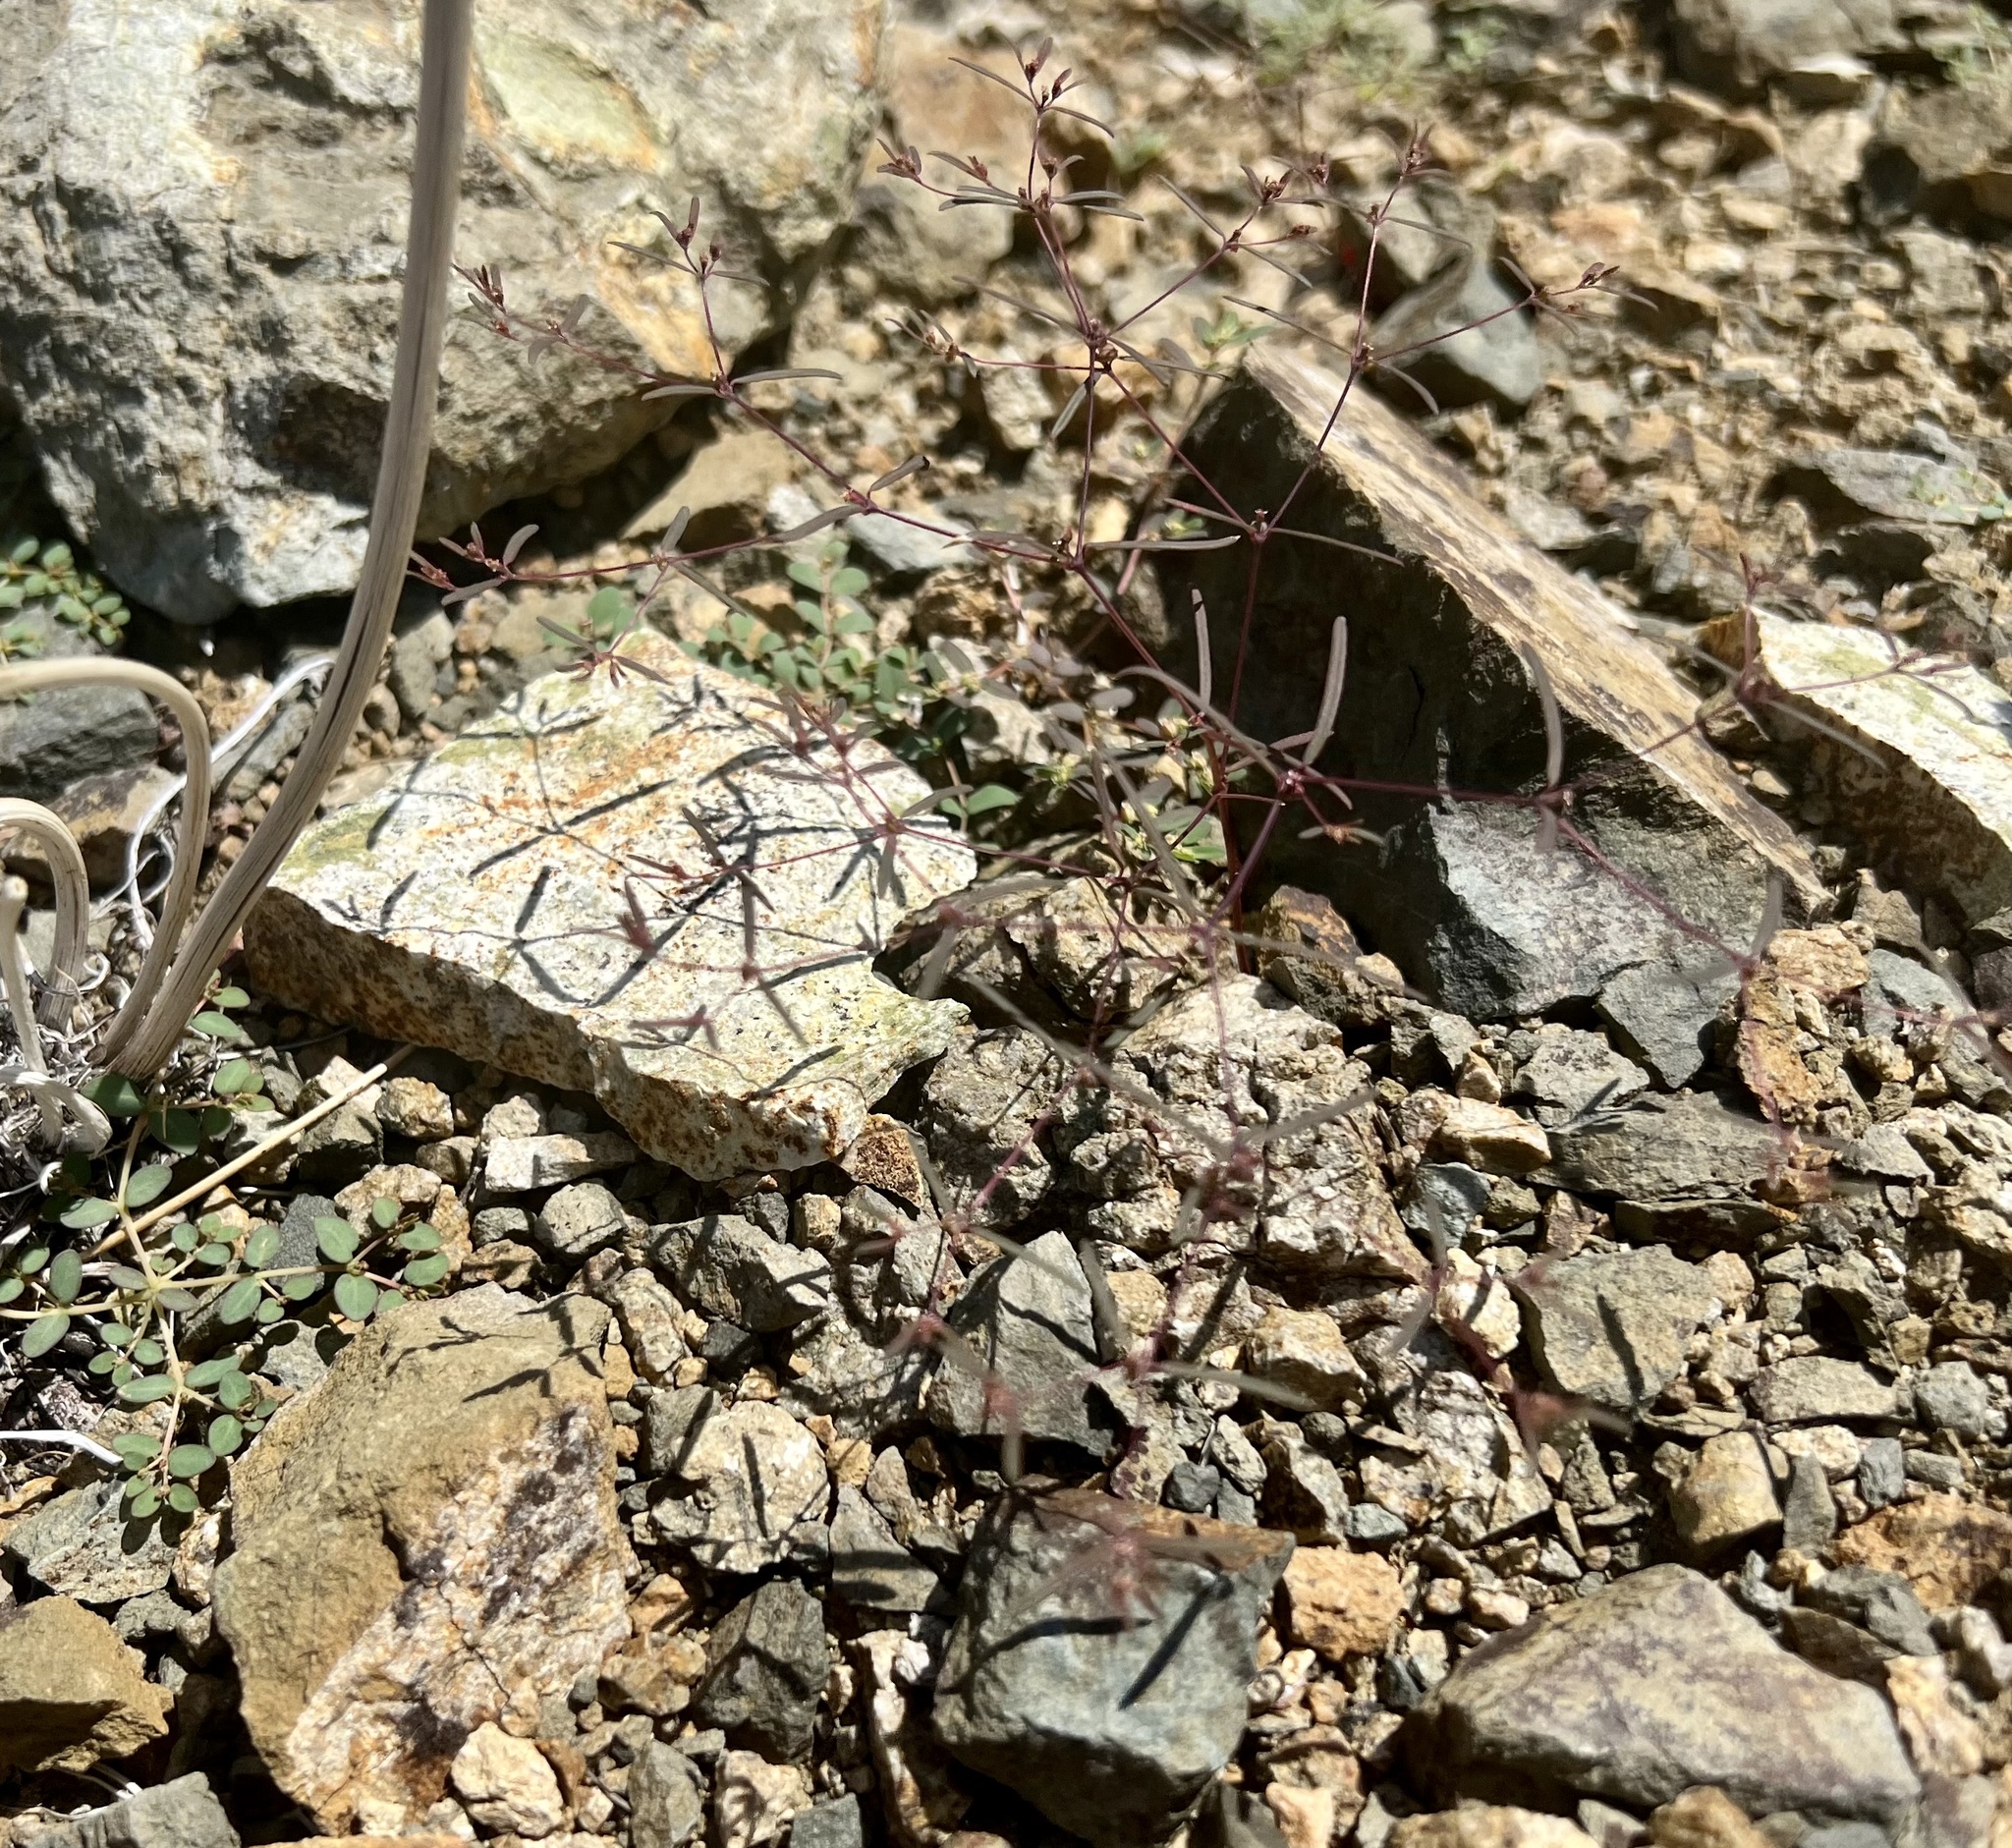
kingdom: Plantae
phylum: Tracheophyta
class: Magnoliopsida
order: Malpighiales
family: Euphorbiaceae
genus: Euphorbia
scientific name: Euphorbia revoluta
